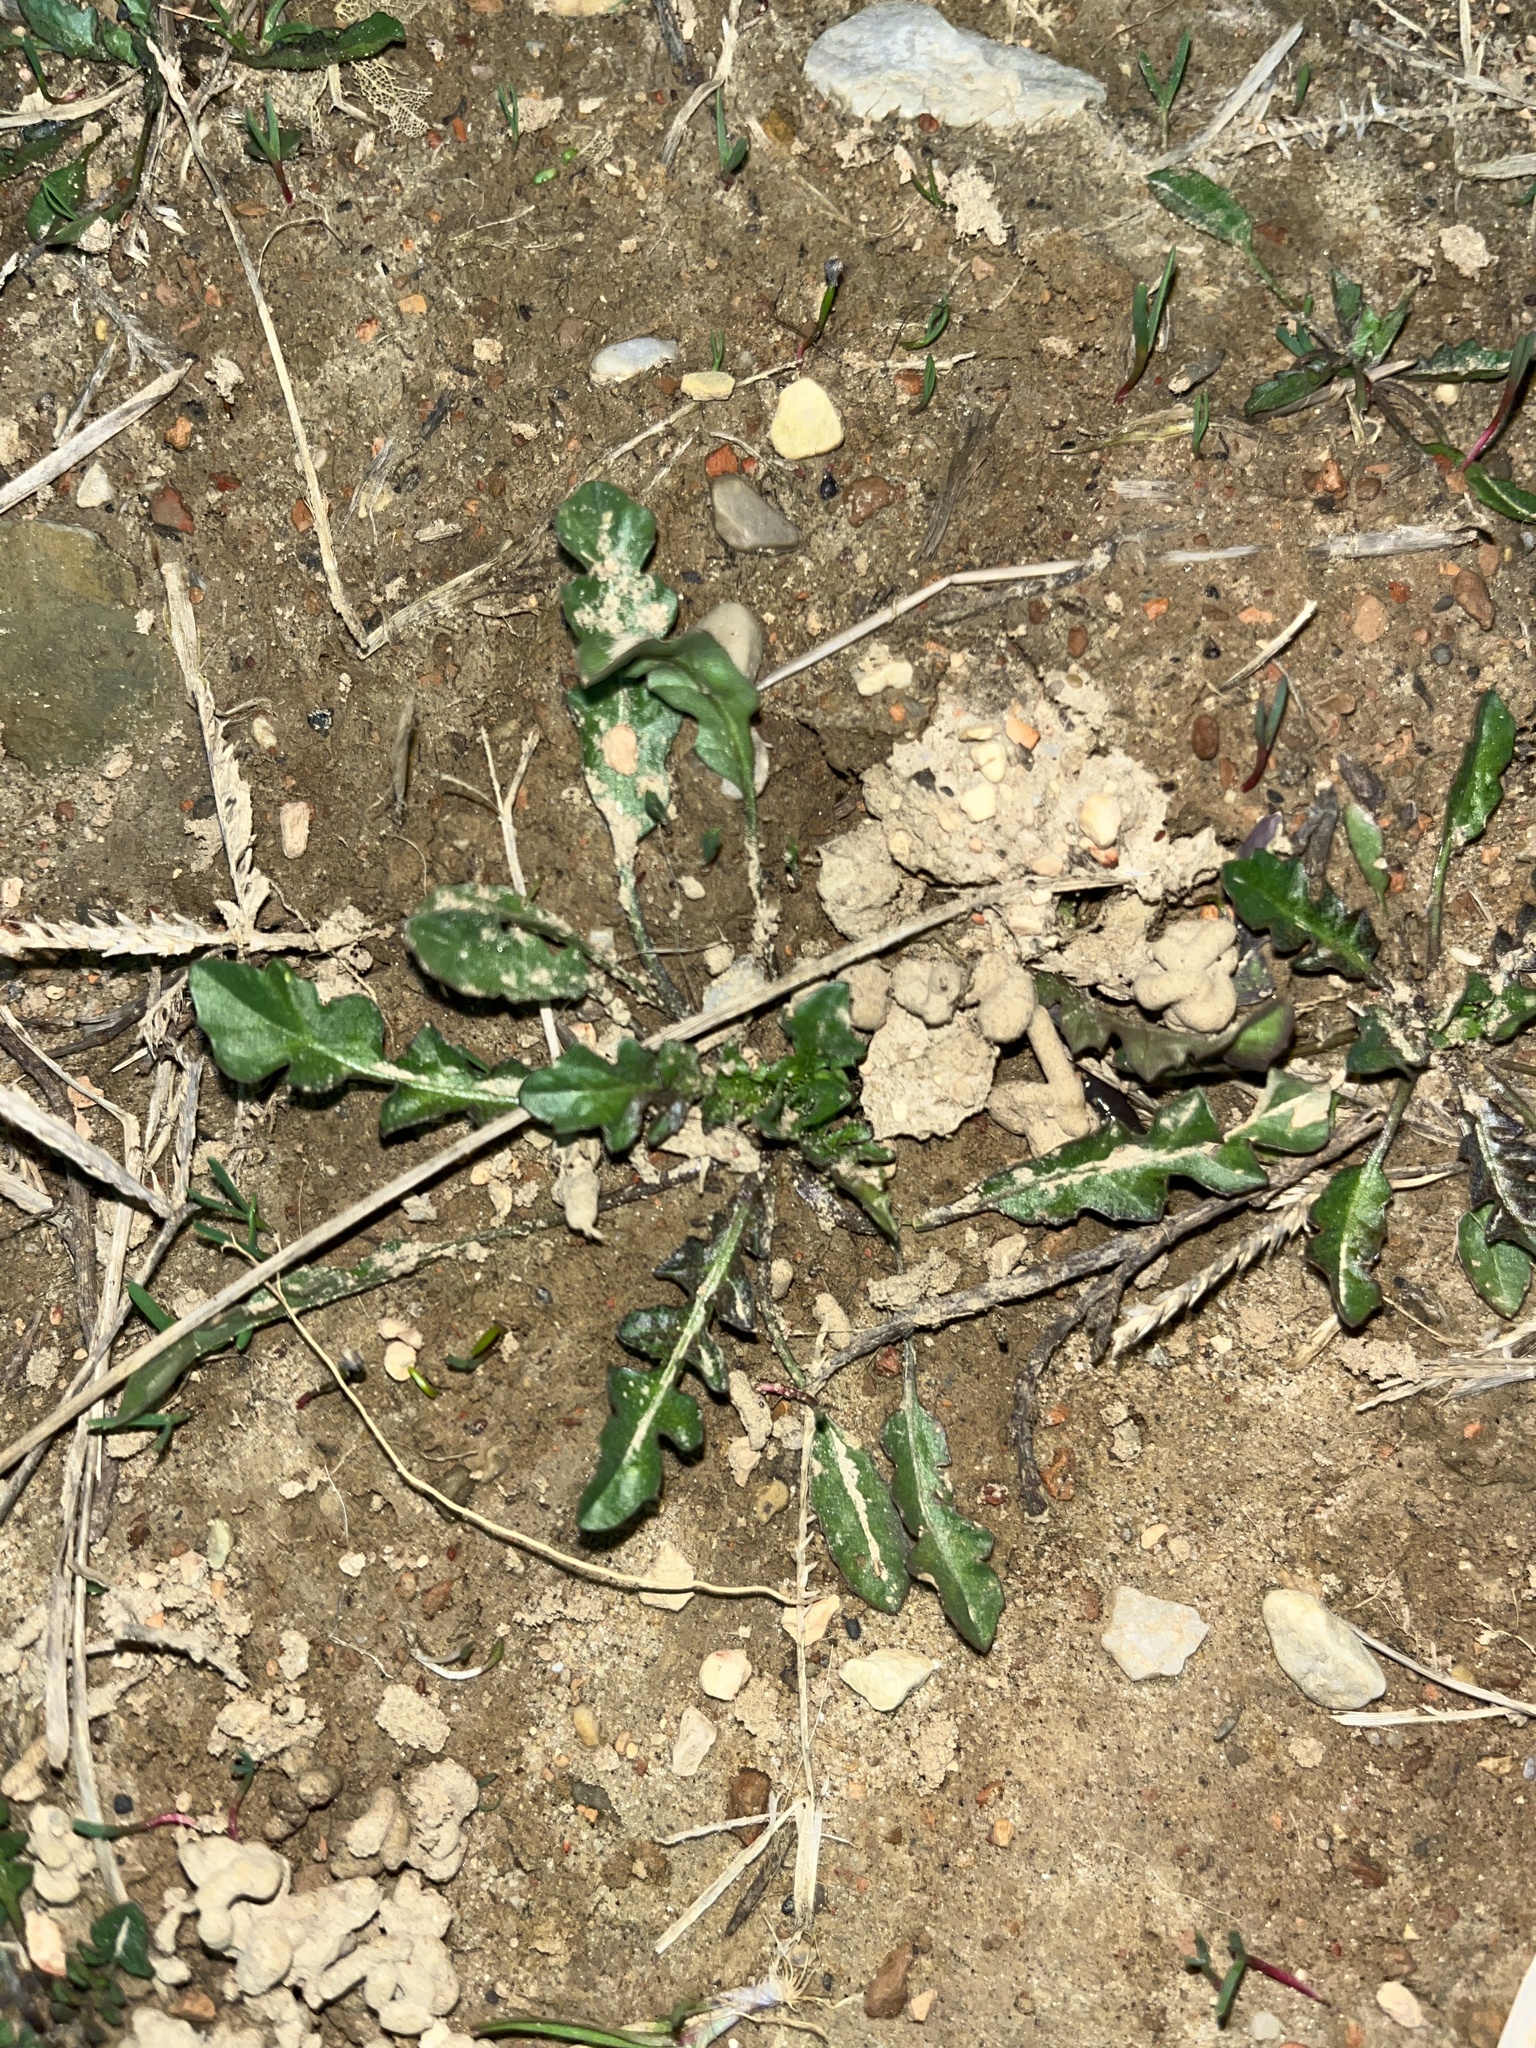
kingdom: Plantae
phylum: Tracheophyta
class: Magnoliopsida
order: Brassicales
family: Brassicaceae
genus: Capsella
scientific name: Capsella bursa-pastoris
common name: Shepherd's purse
